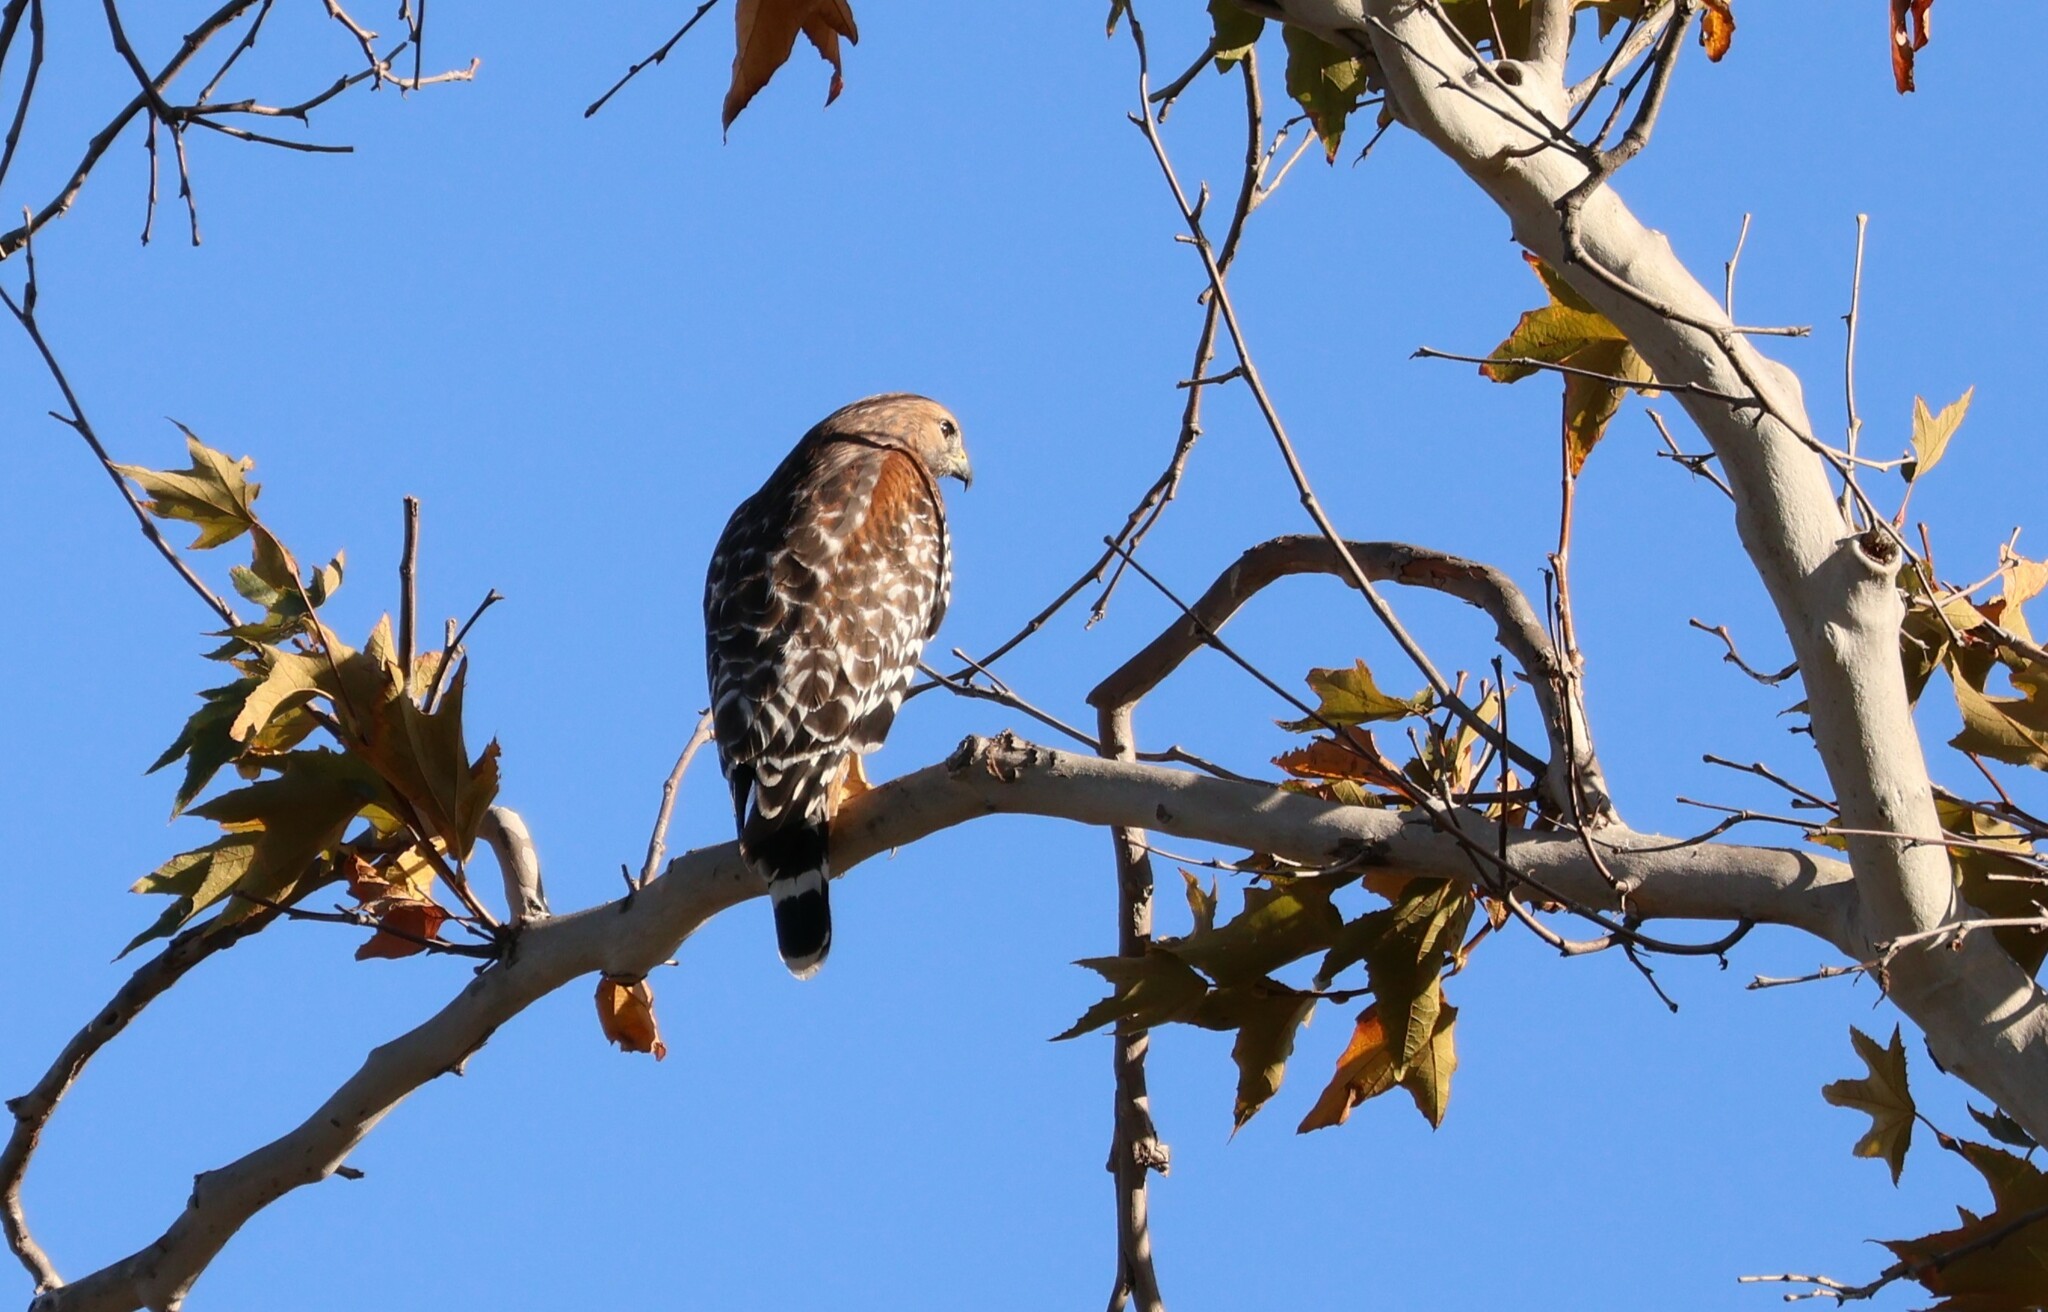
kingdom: Animalia
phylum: Chordata
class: Aves
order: Accipitriformes
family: Accipitridae
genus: Buteo
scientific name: Buteo lineatus
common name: Red-shouldered hawk
